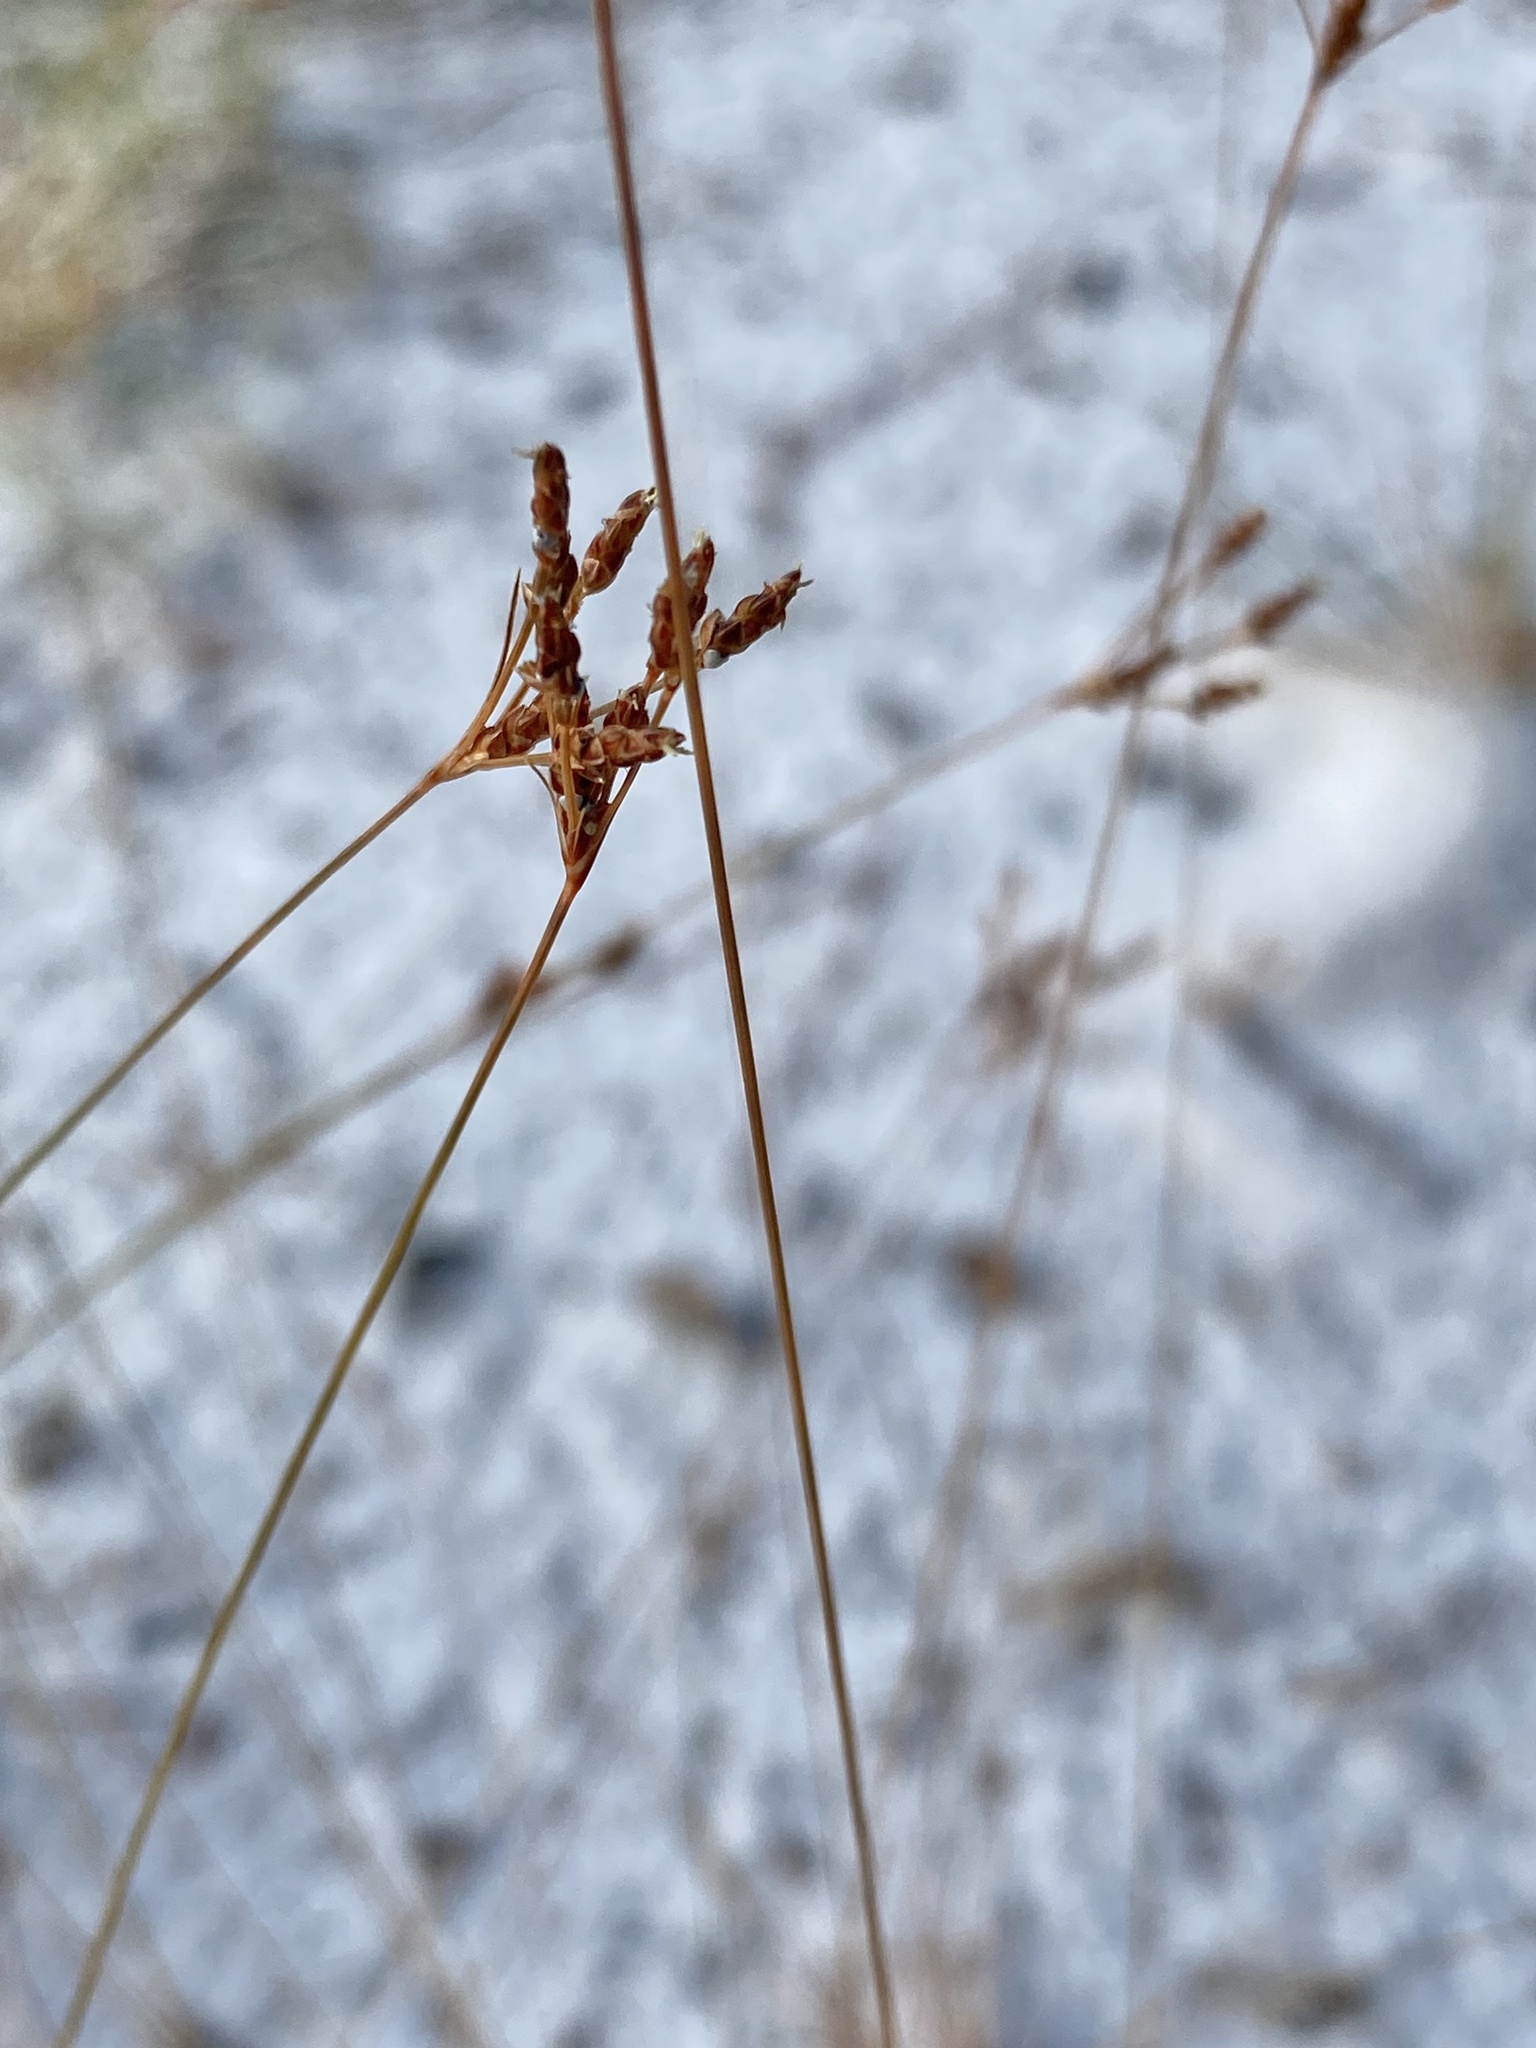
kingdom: Plantae
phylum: Tracheophyta
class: Liliopsida
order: Poales
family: Cyperaceae
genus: Bulbostylis
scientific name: Bulbostylis ciliatifolia
